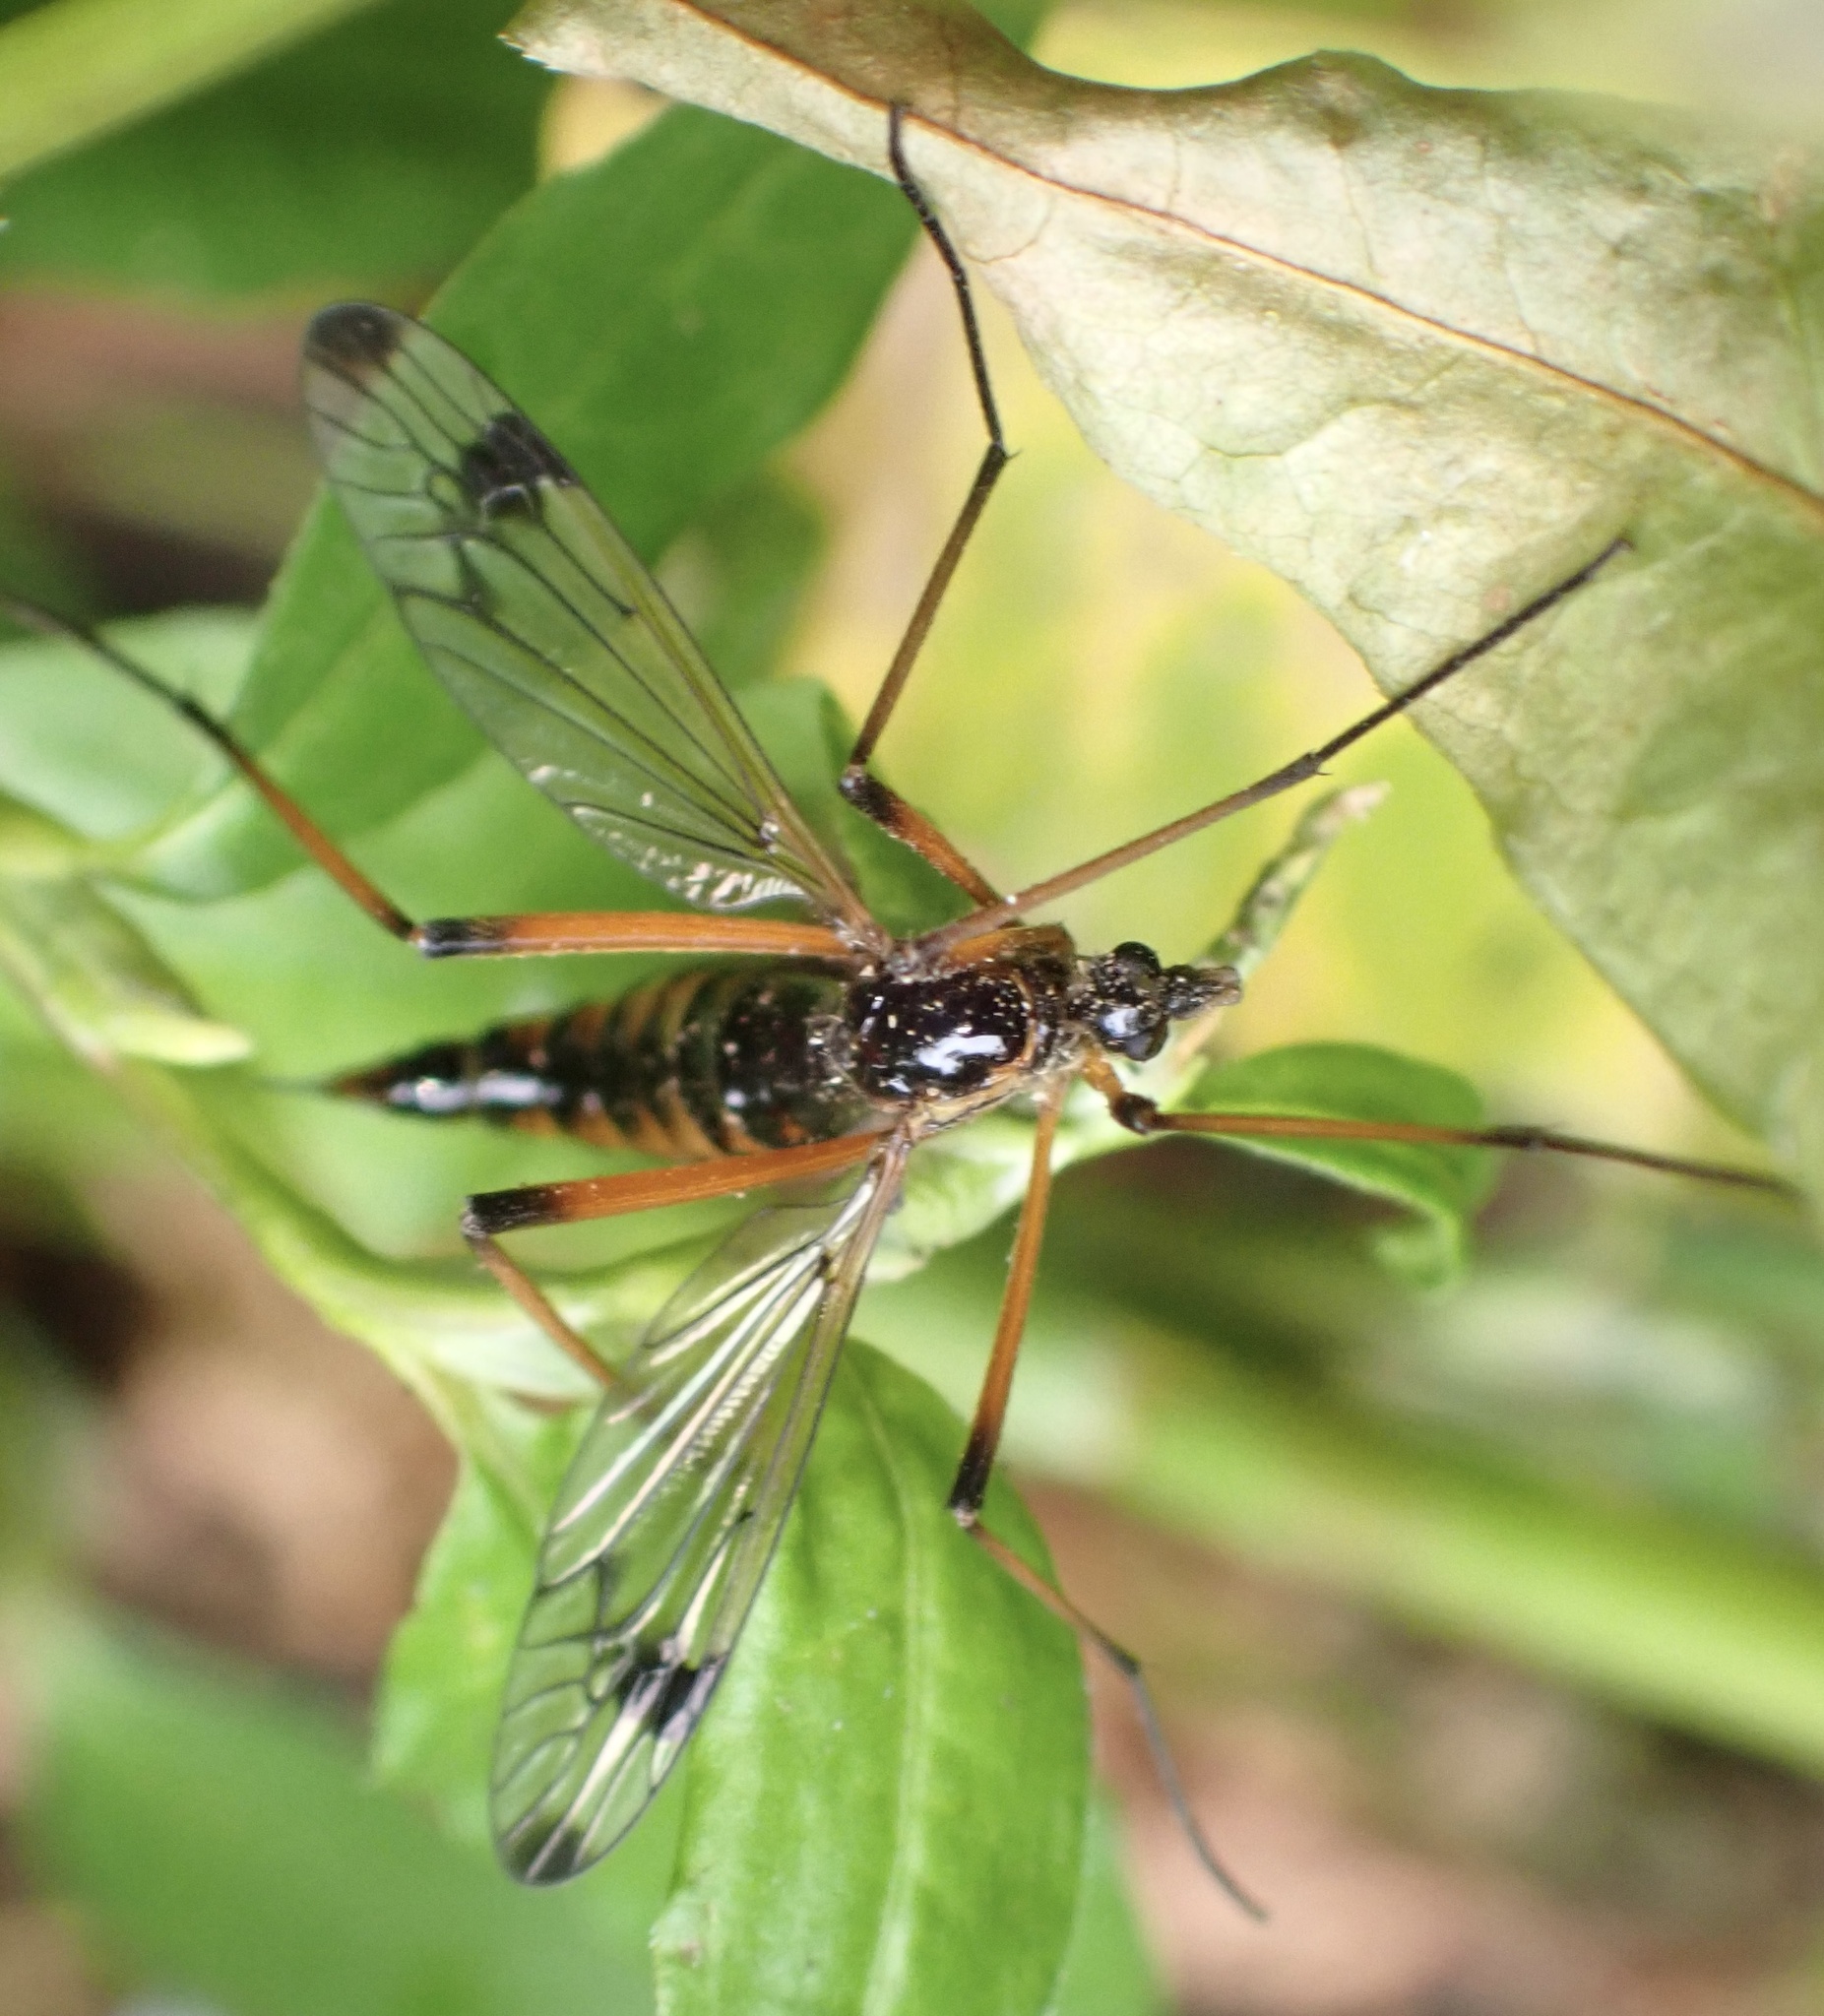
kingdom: Animalia
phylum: Arthropoda
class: Insecta
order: Diptera
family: Tipulidae
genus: Dictenidia
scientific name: Dictenidia bimaculata
